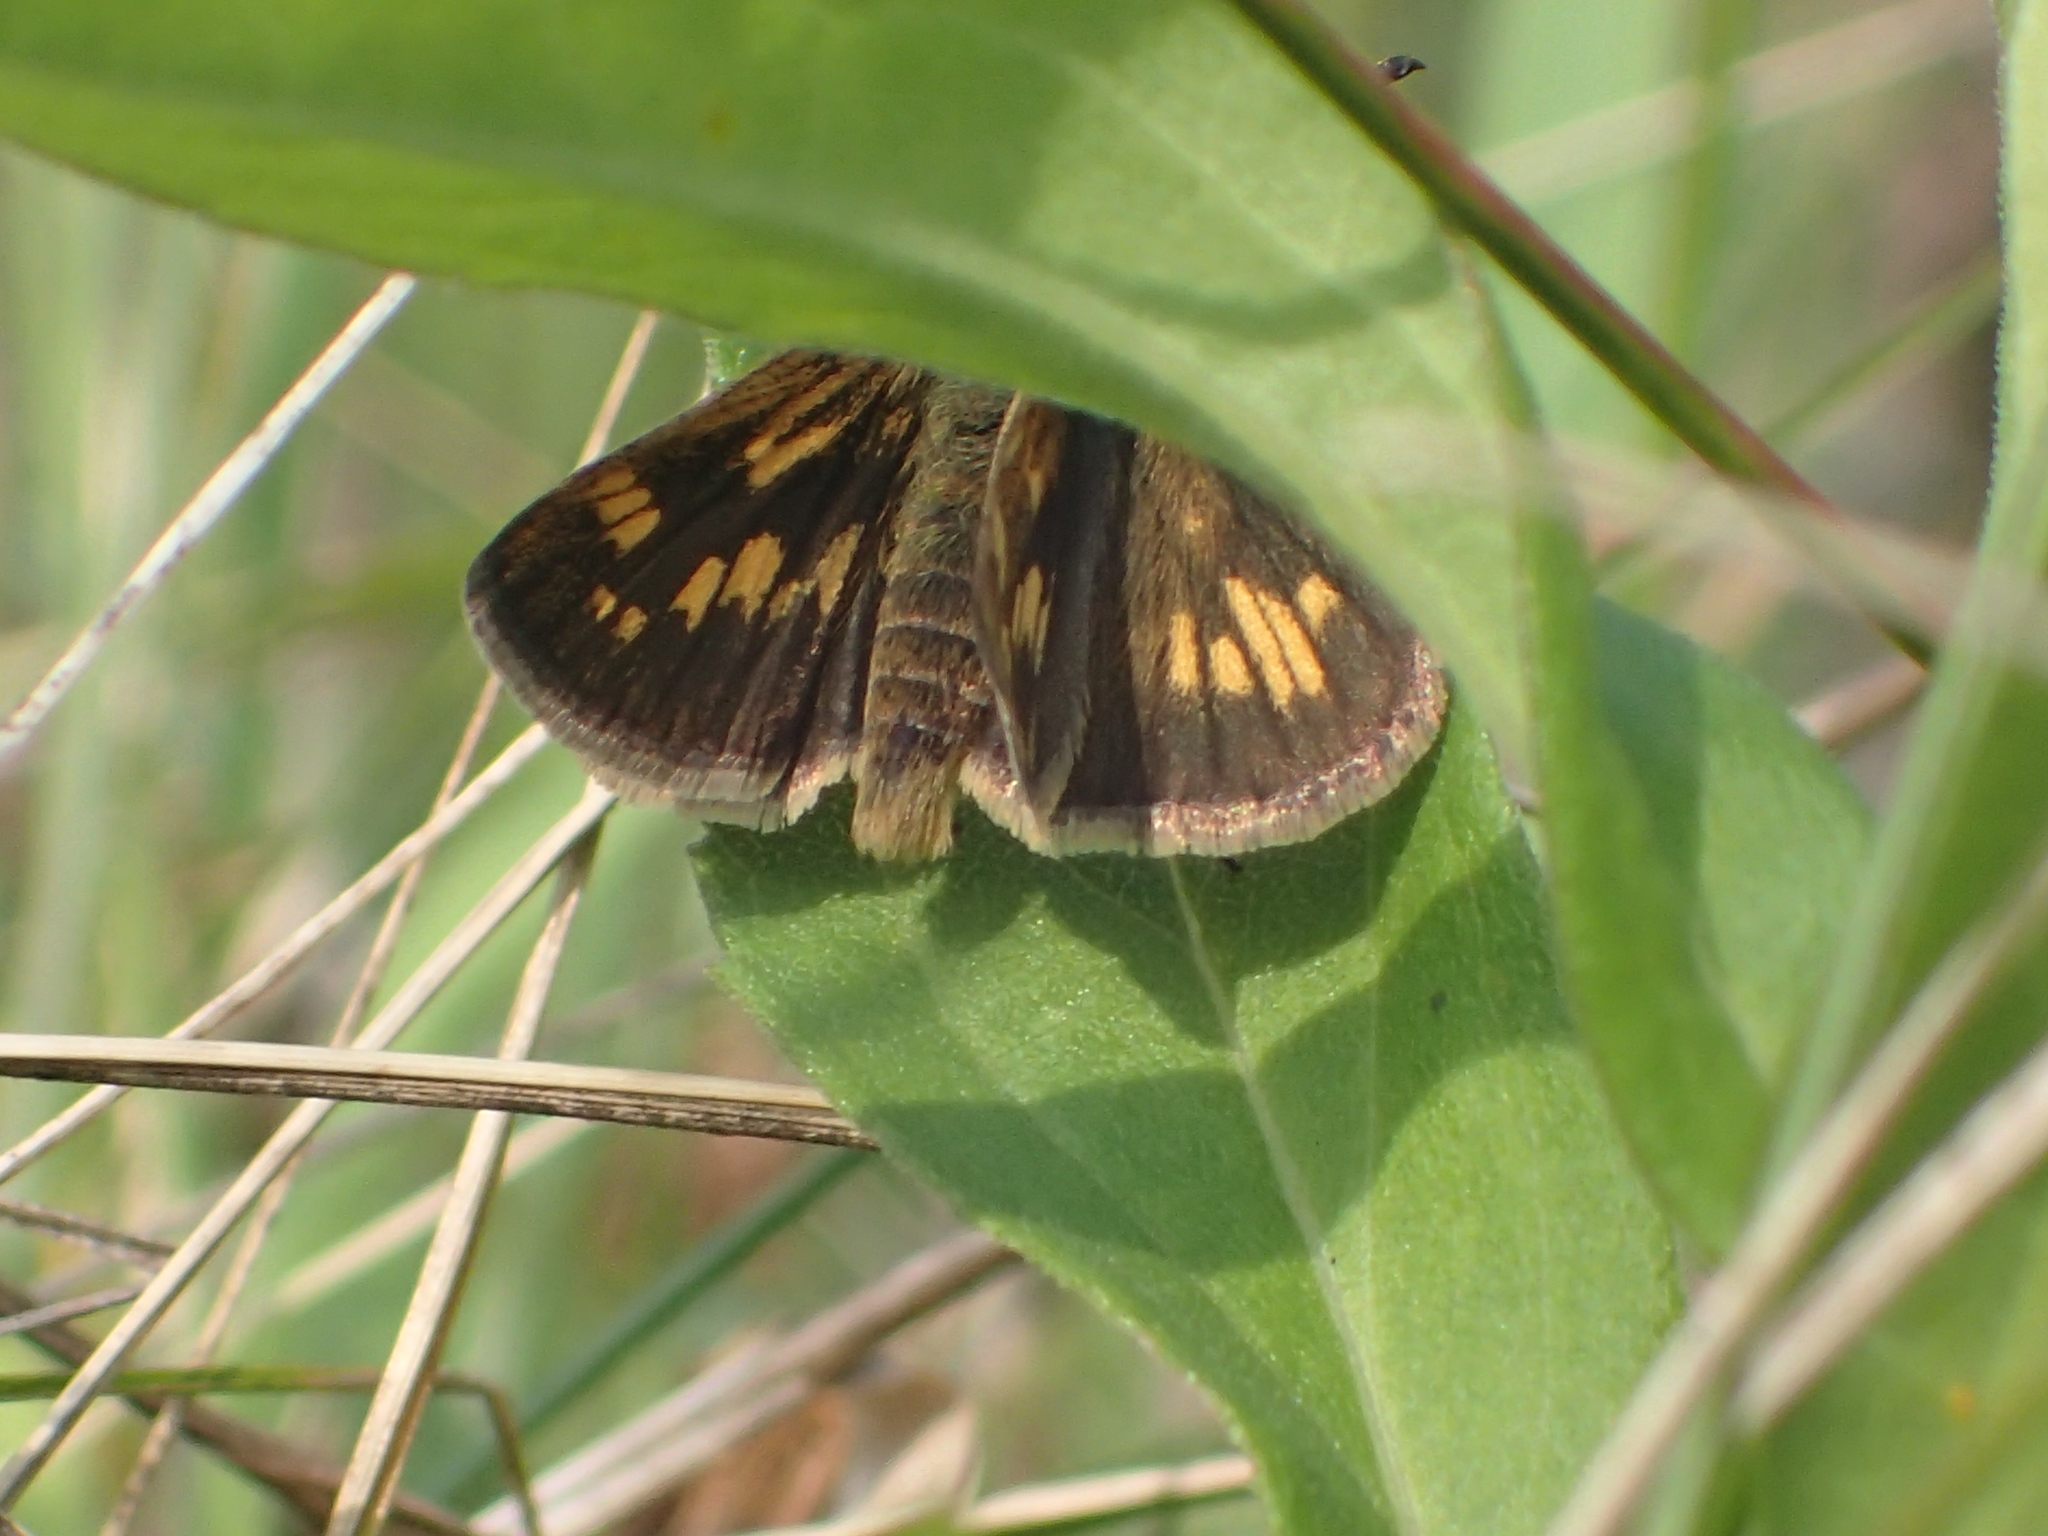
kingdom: Animalia
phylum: Arthropoda
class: Insecta
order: Lepidoptera
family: Hesperiidae
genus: Polites
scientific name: Polites coras
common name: Peck's skipper
